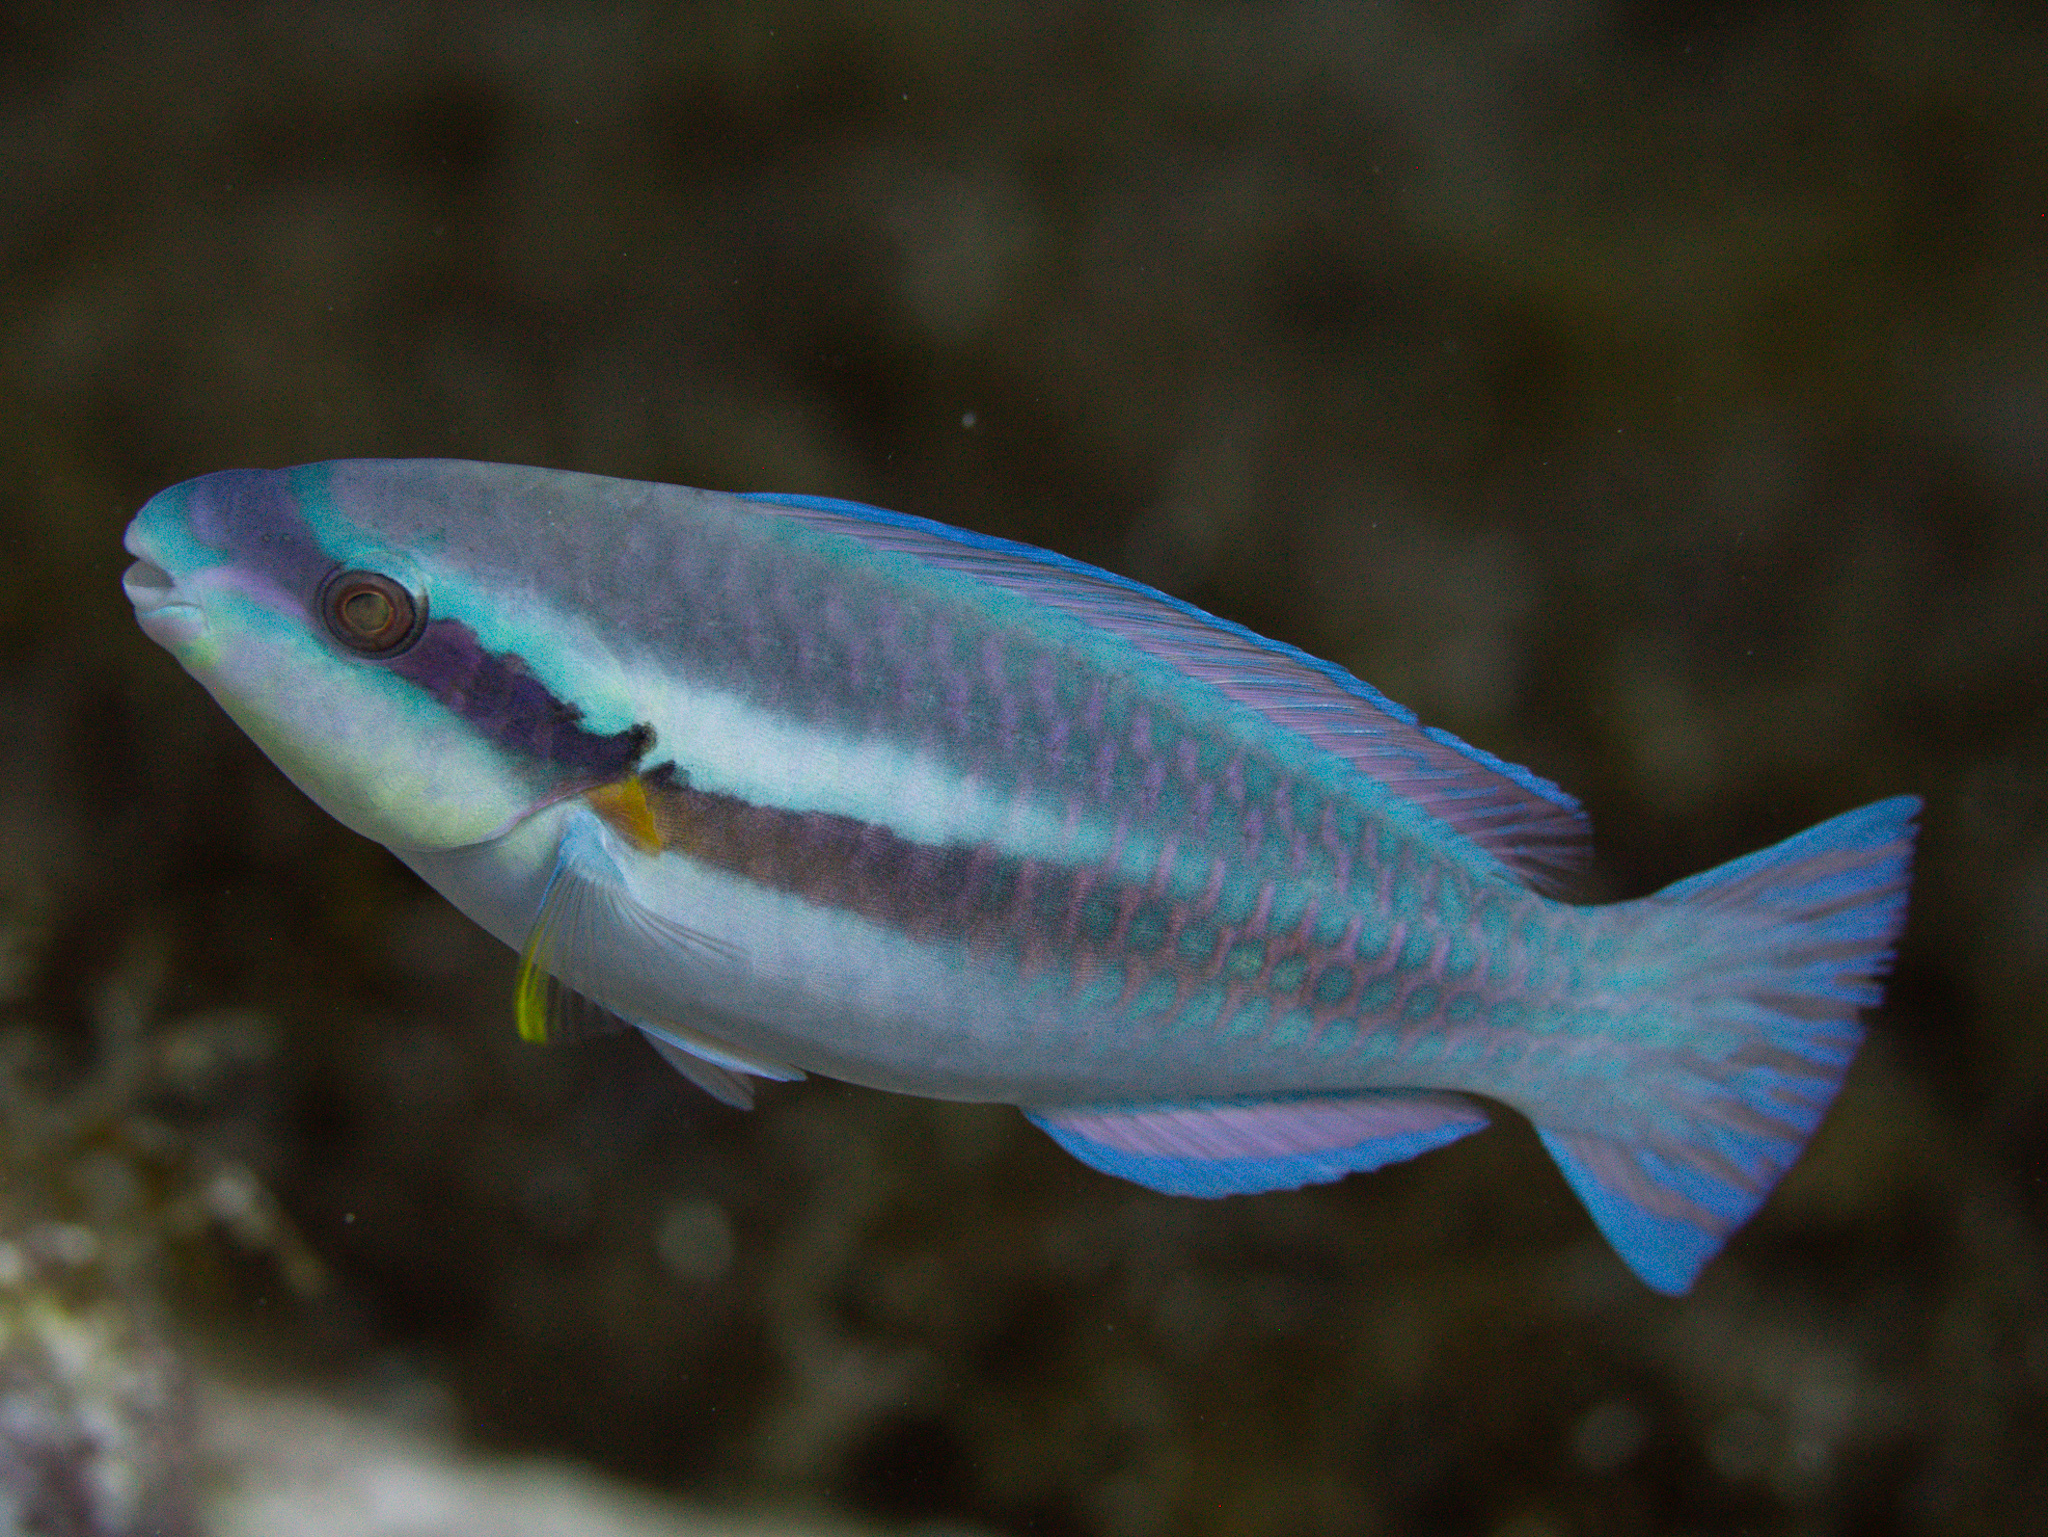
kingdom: Animalia
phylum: Chordata
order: Perciformes
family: Scaridae
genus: Scarus
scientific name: Scarus iseri
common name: Striped parrotfish
